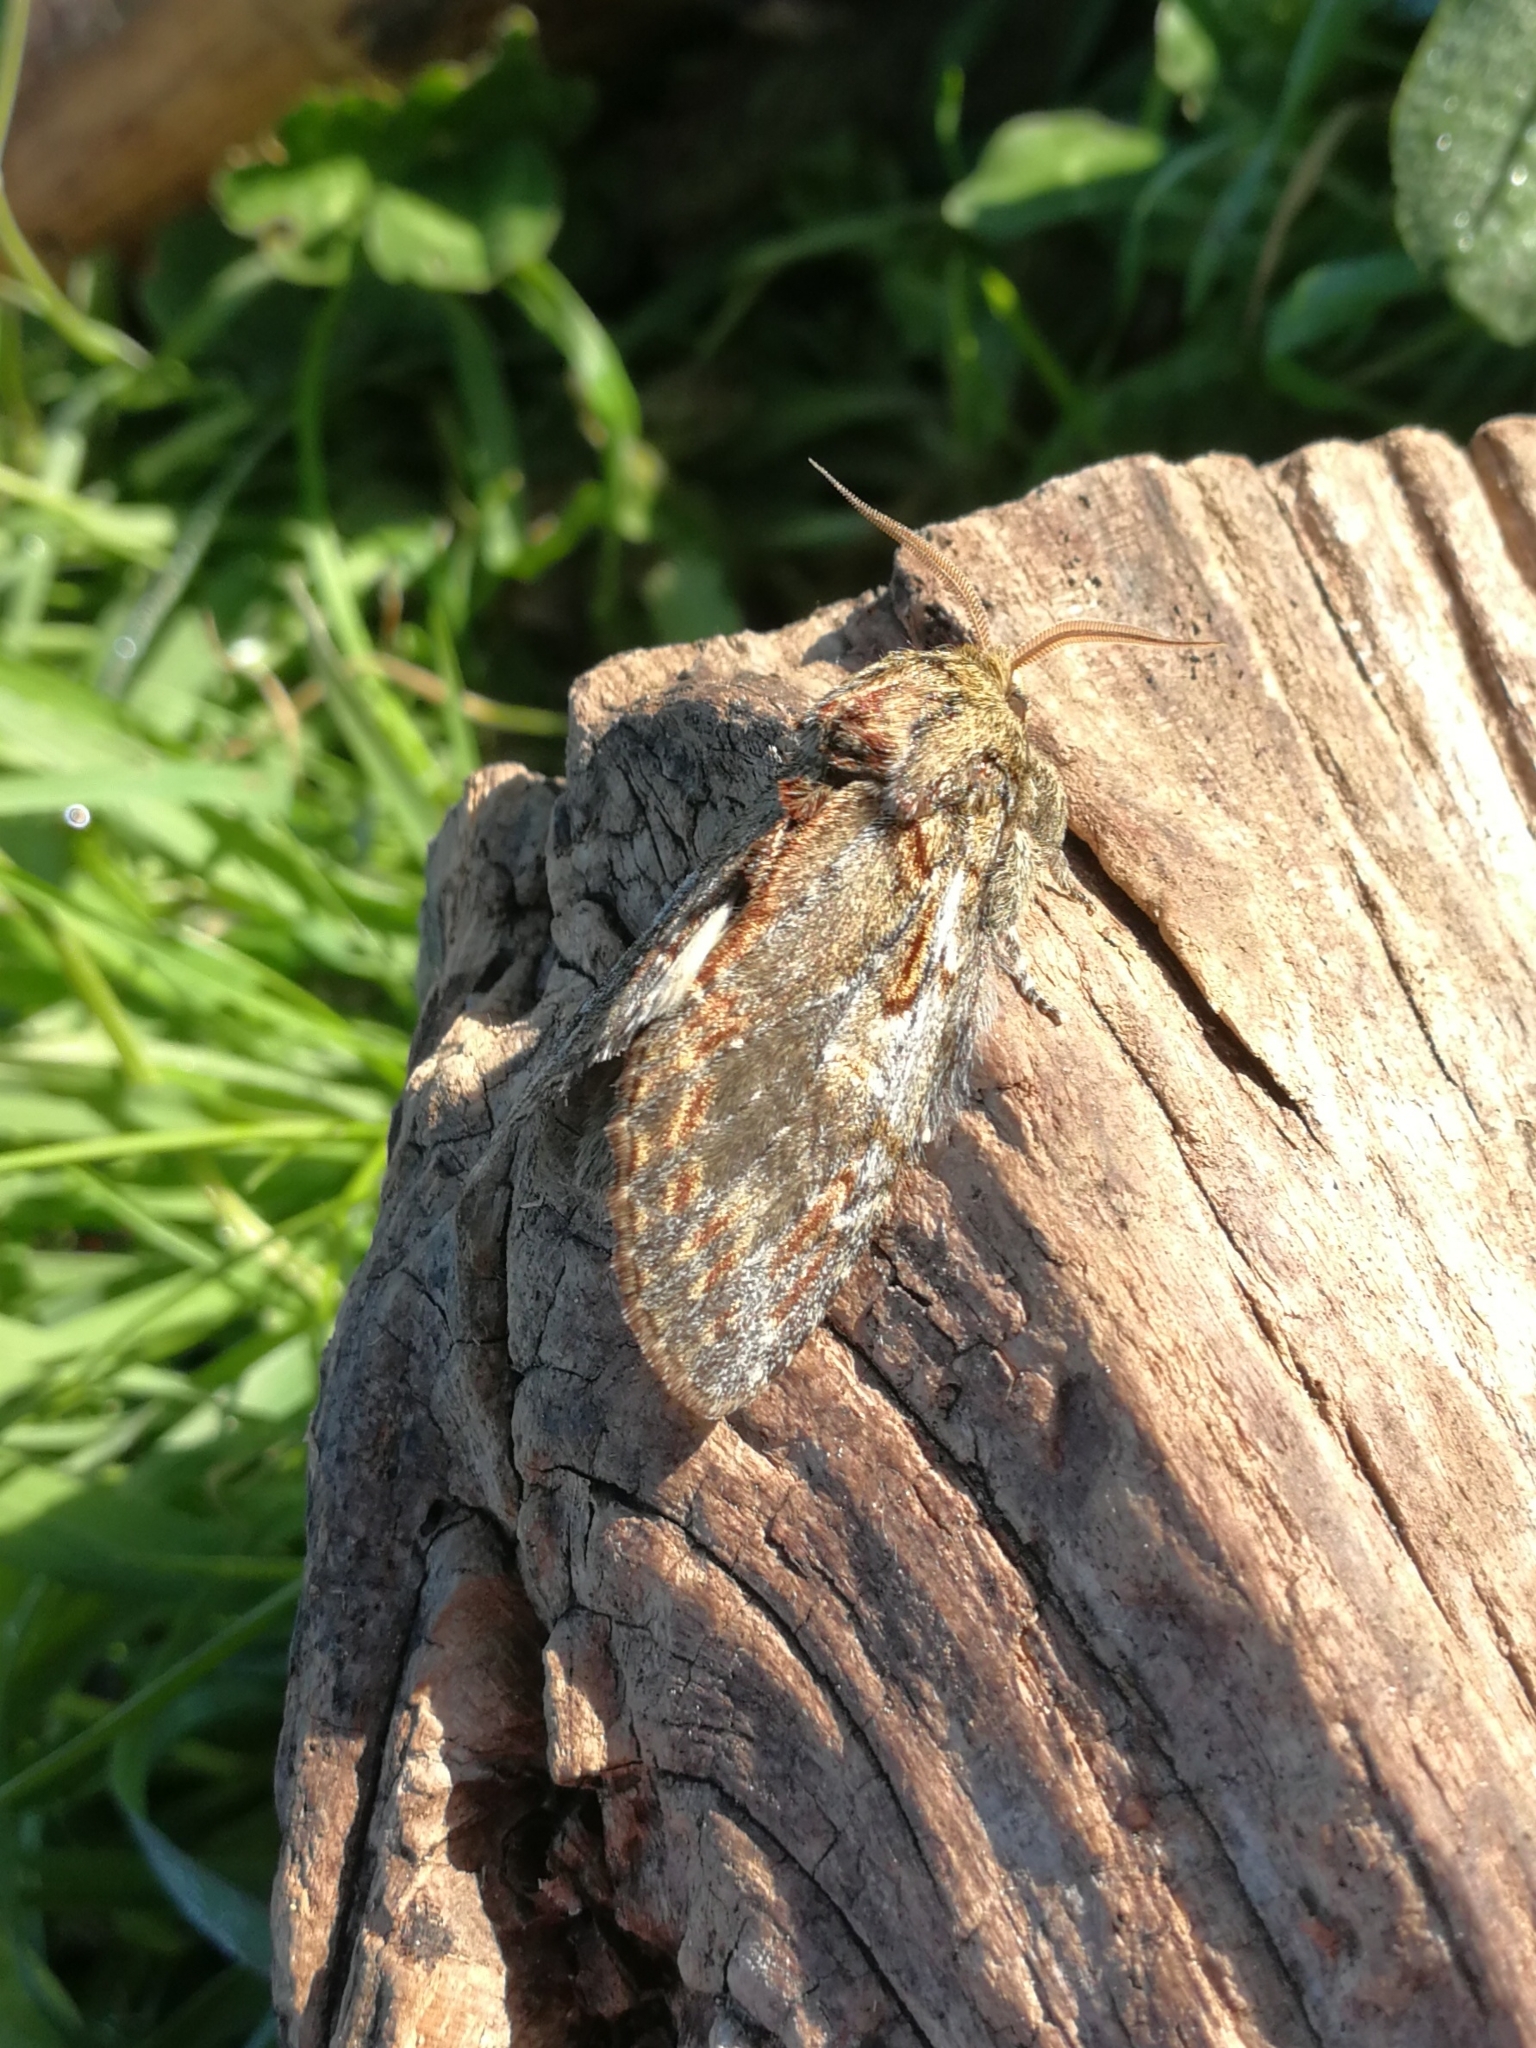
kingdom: Animalia
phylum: Arthropoda
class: Insecta
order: Lepidoptera
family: Notodontidae
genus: Peridea
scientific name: Peridea anceps
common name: Great prominent
